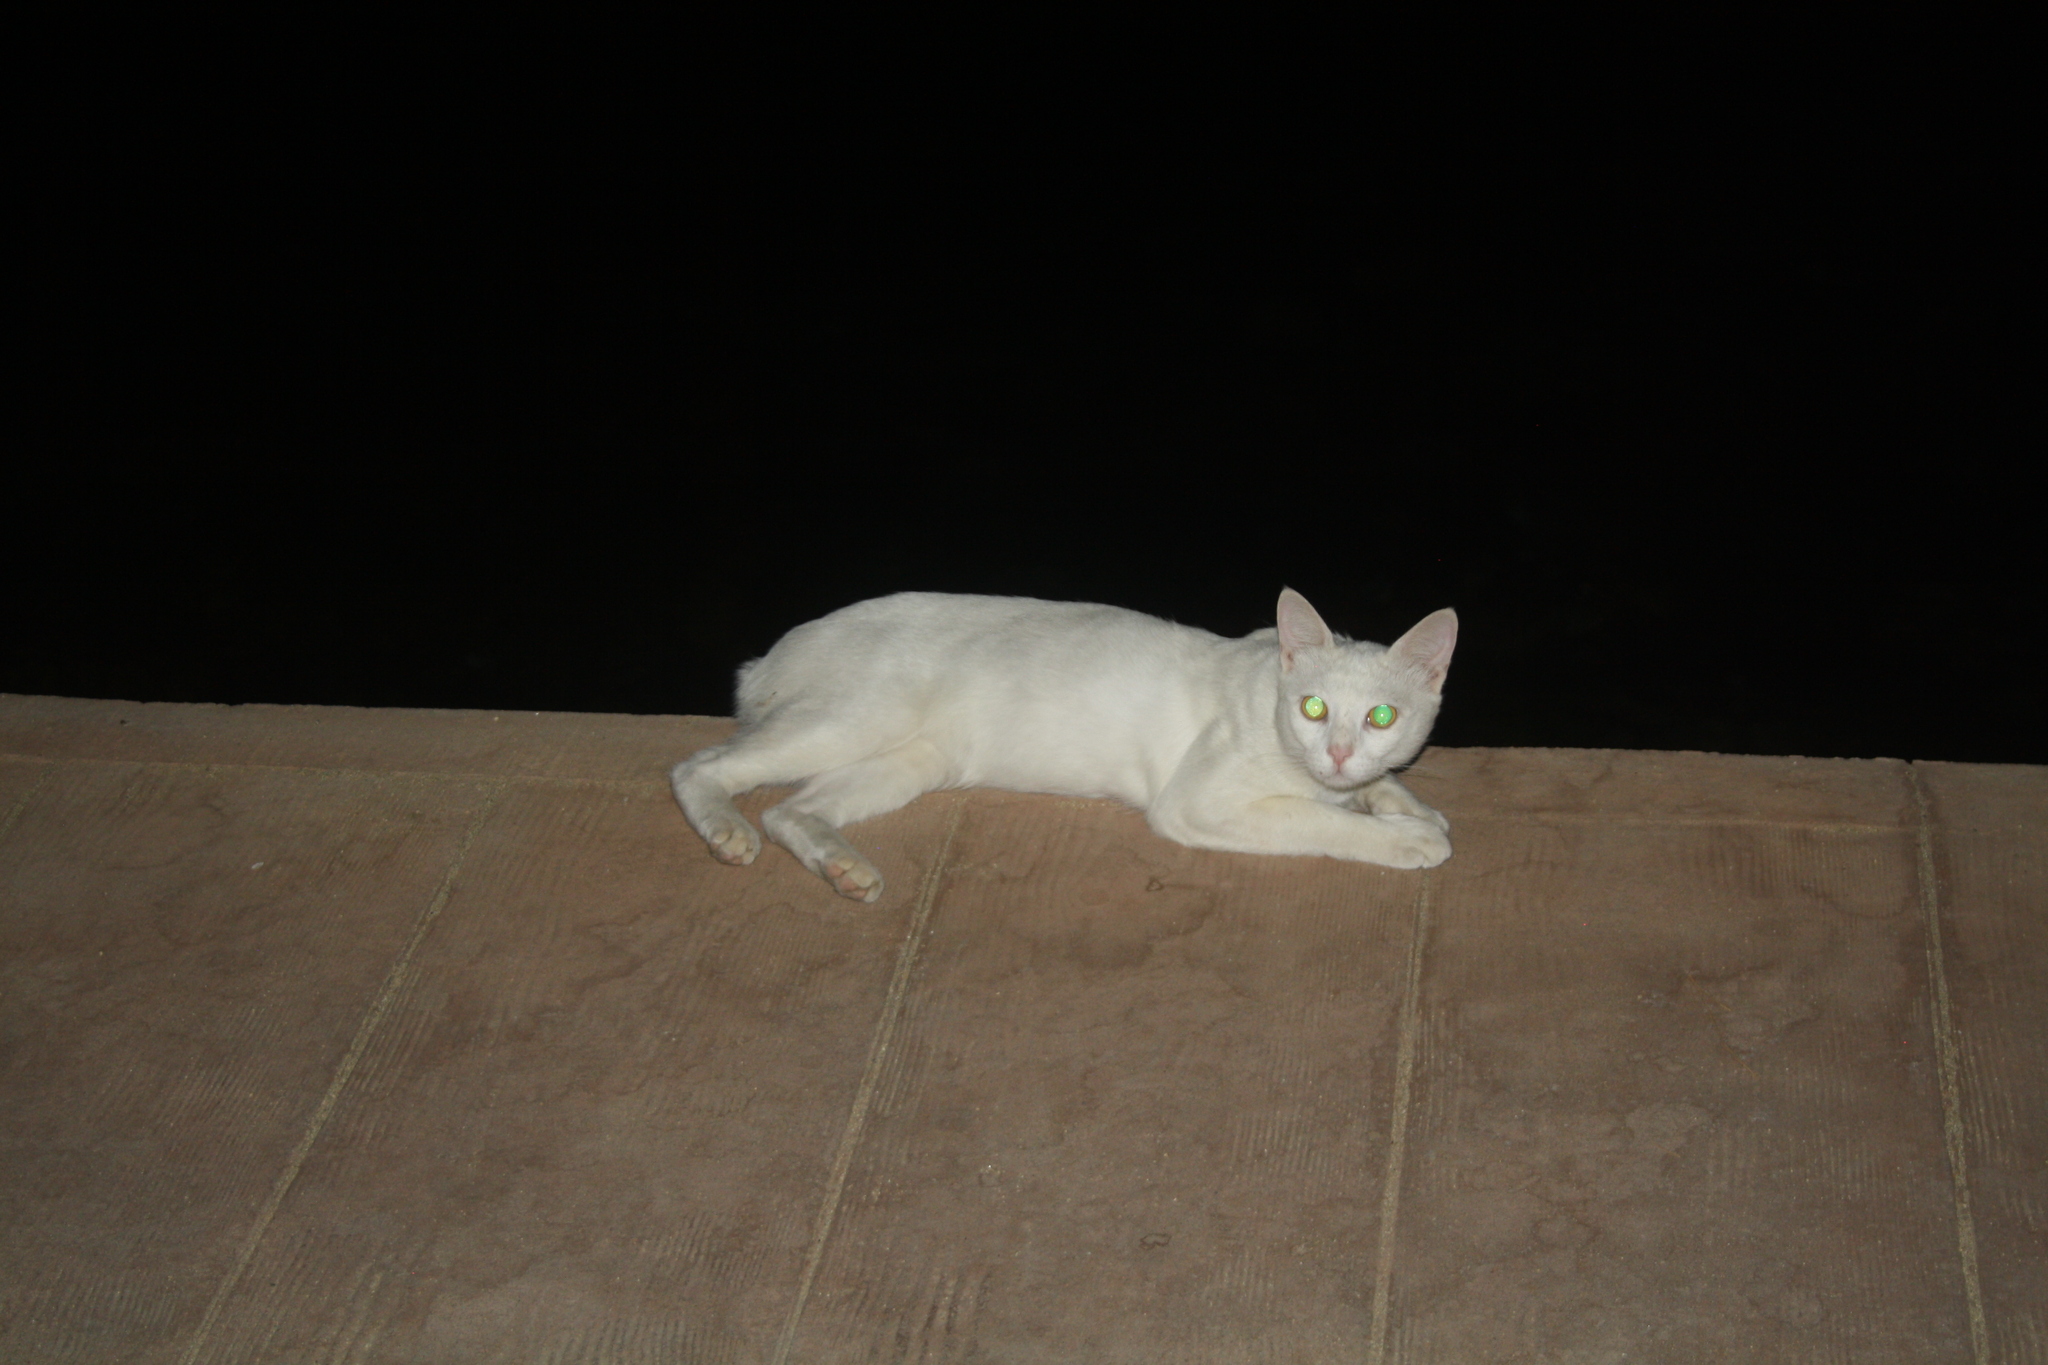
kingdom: Animalia
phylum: Chordata
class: Mammalia
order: Carnivora
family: Felidae
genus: Felis
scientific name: Felis catus
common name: Domestic cat
